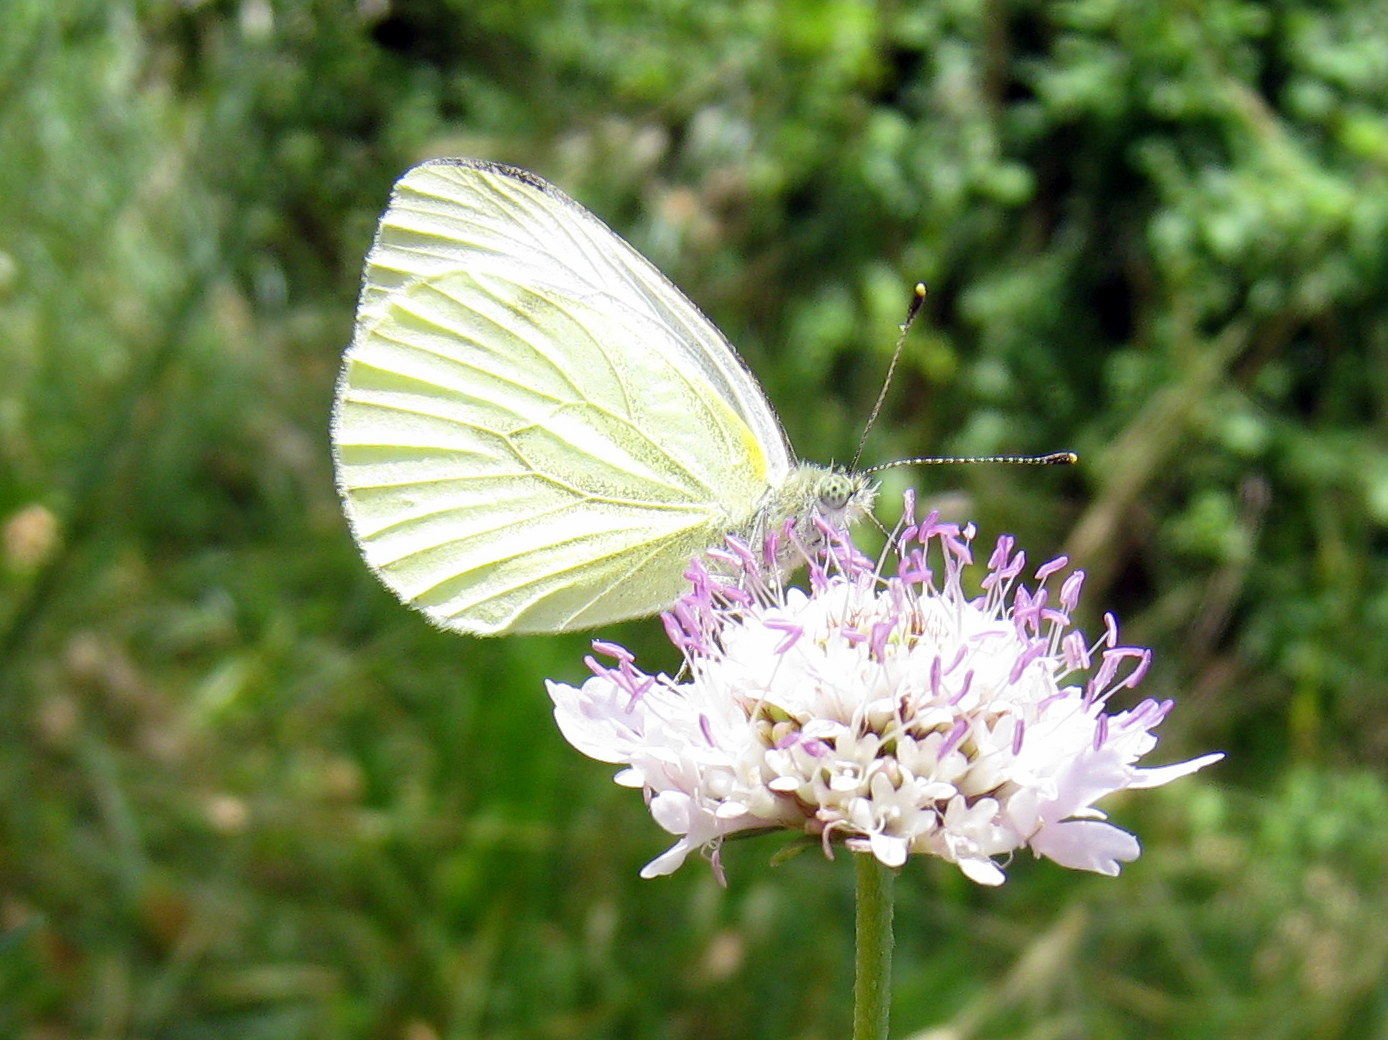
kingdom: Animalia
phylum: Arthropoda
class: Insecta
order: Lepidoptera
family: Pieridae
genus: Pieris
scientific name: Pieris napi
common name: Green-veined white
